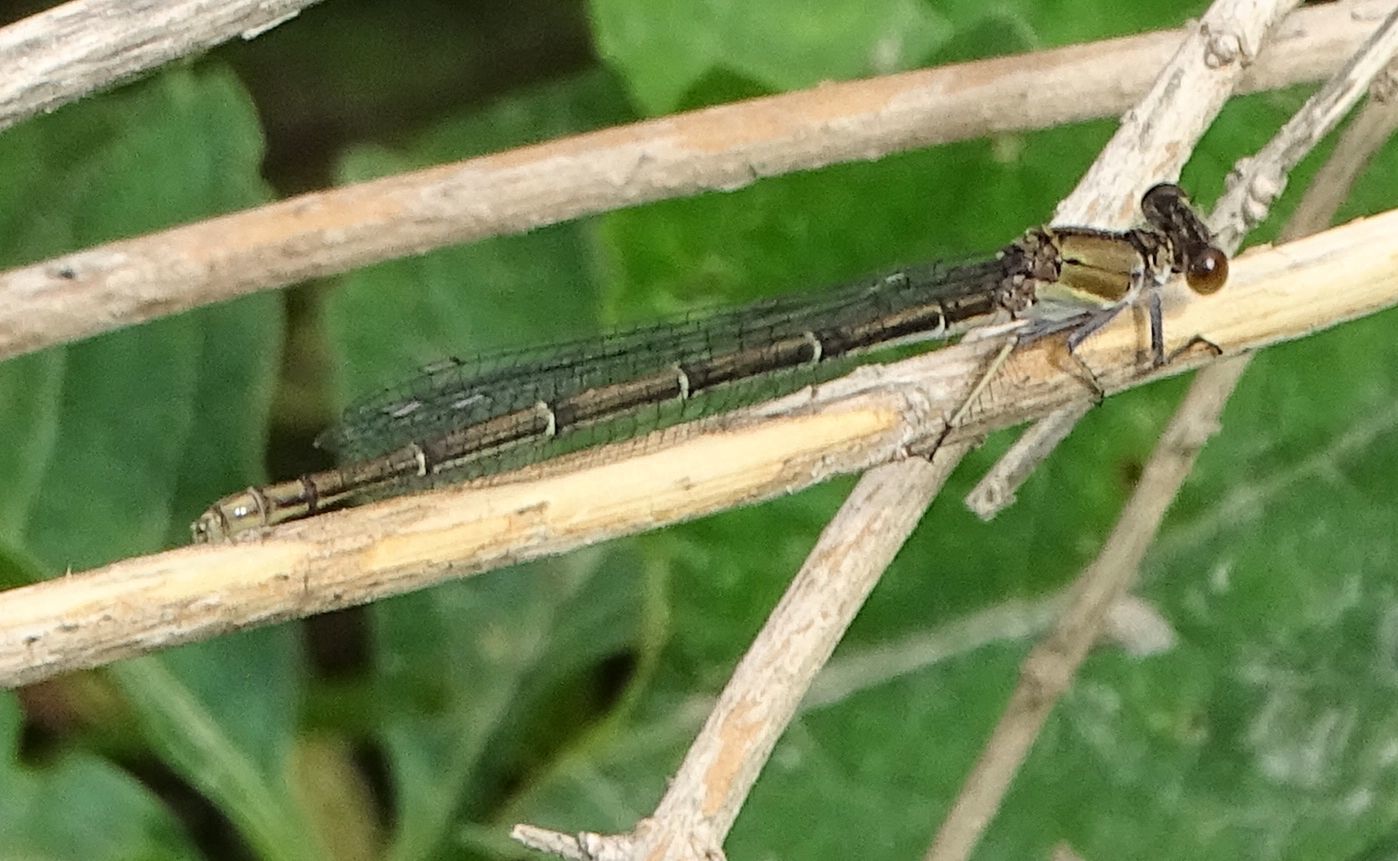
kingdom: Animalia
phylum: Arthropoda
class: Insecta
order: Odonata
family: Coenagrionidae
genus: Argia
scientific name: Argia moesta
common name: Powdered dancer
